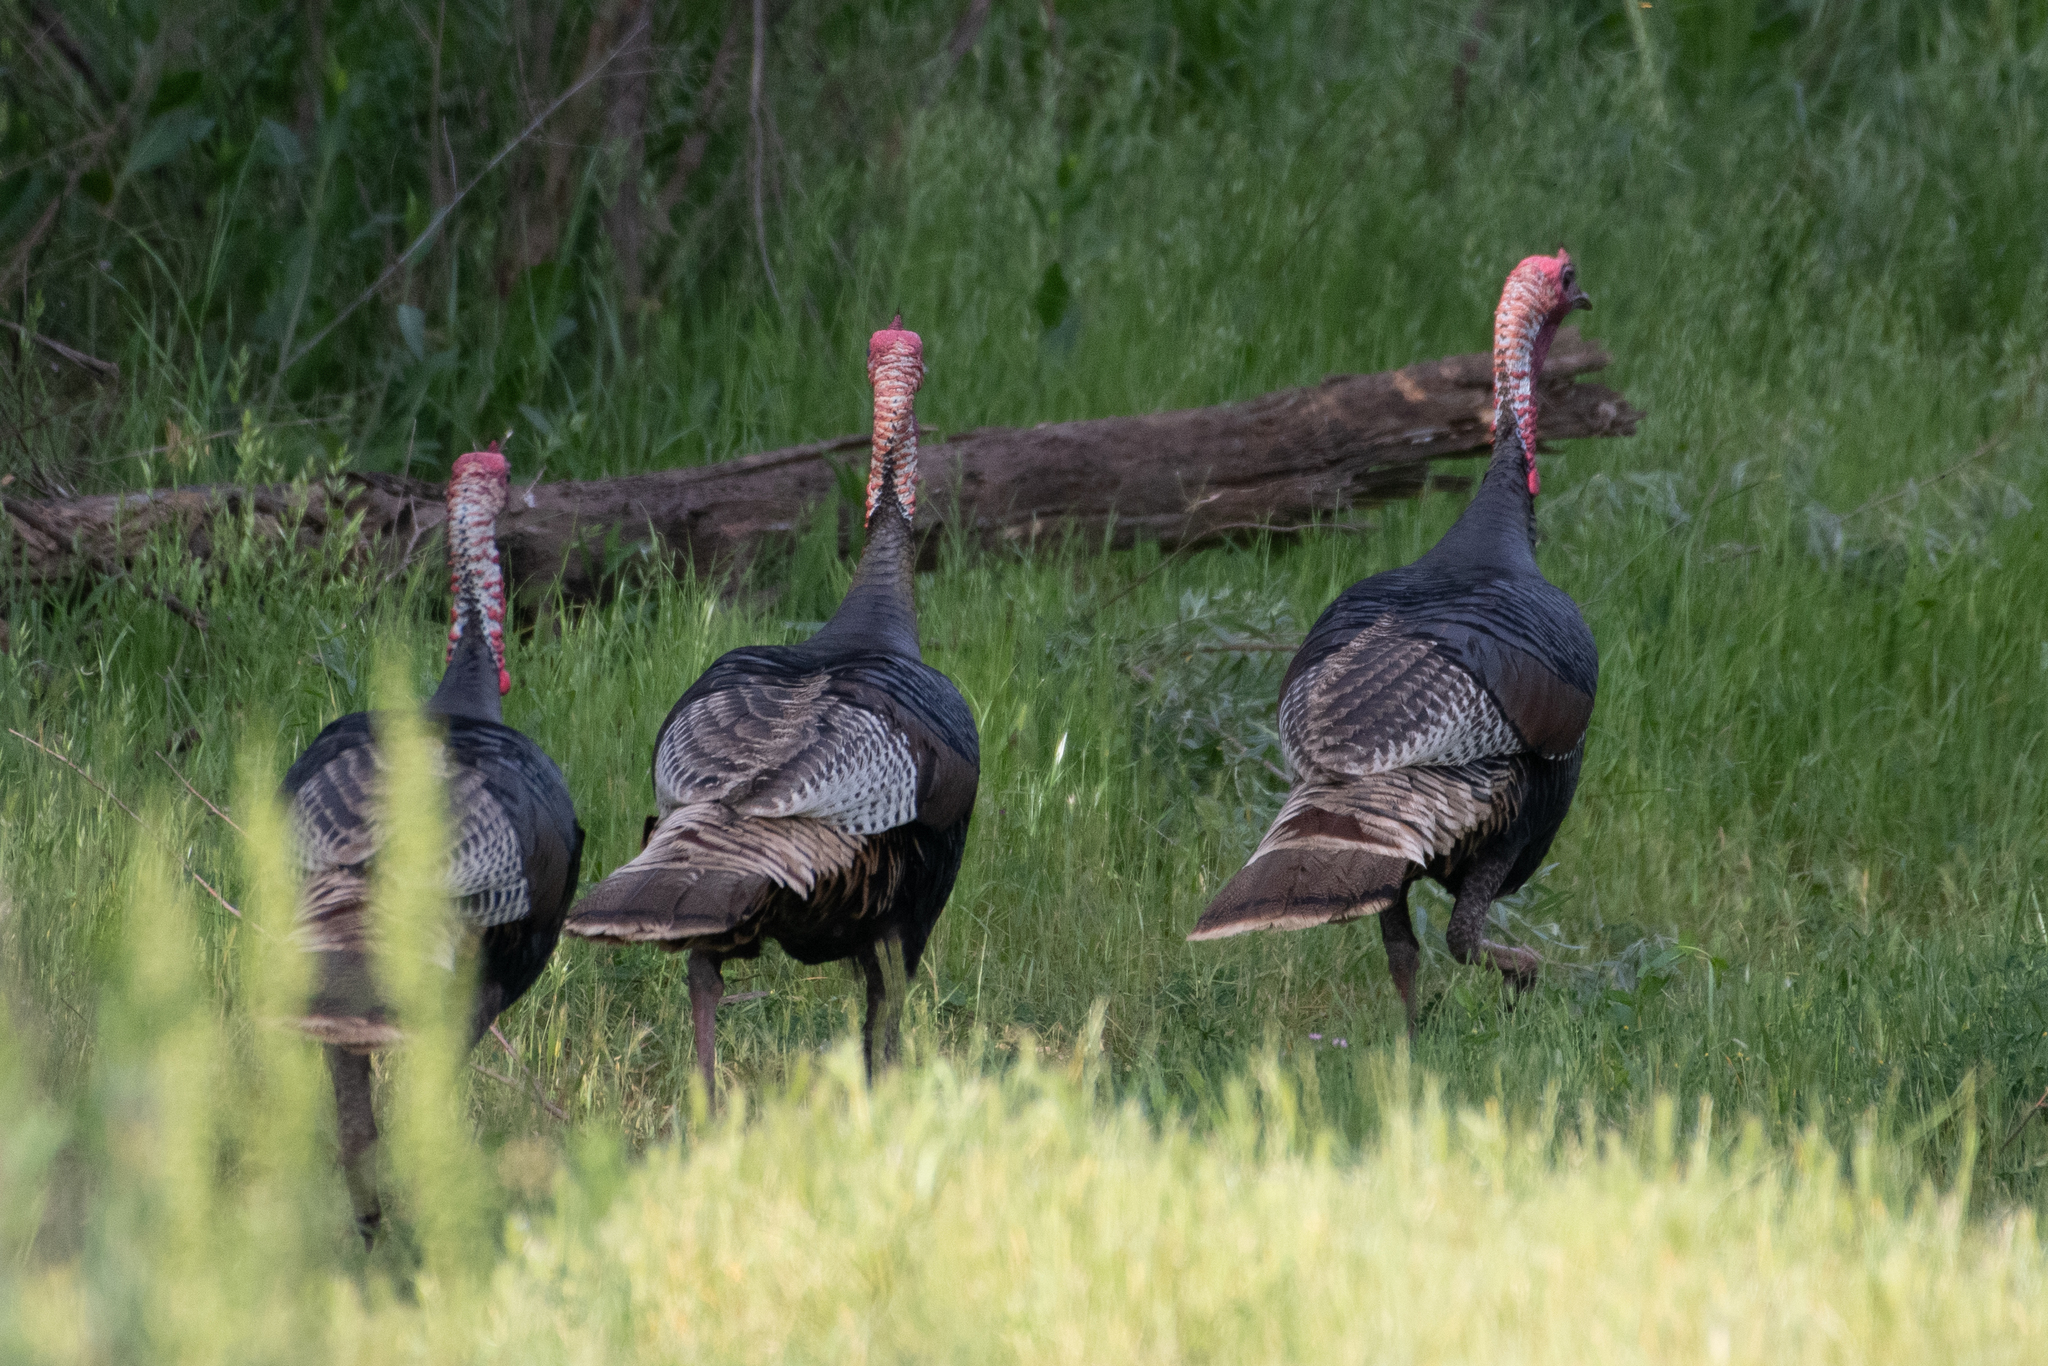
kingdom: Animalia
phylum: Chordata
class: Aves
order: Galliformes
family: Phasianidae
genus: Meleagris
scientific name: Meleagris gallopavo
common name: Wild turkey
